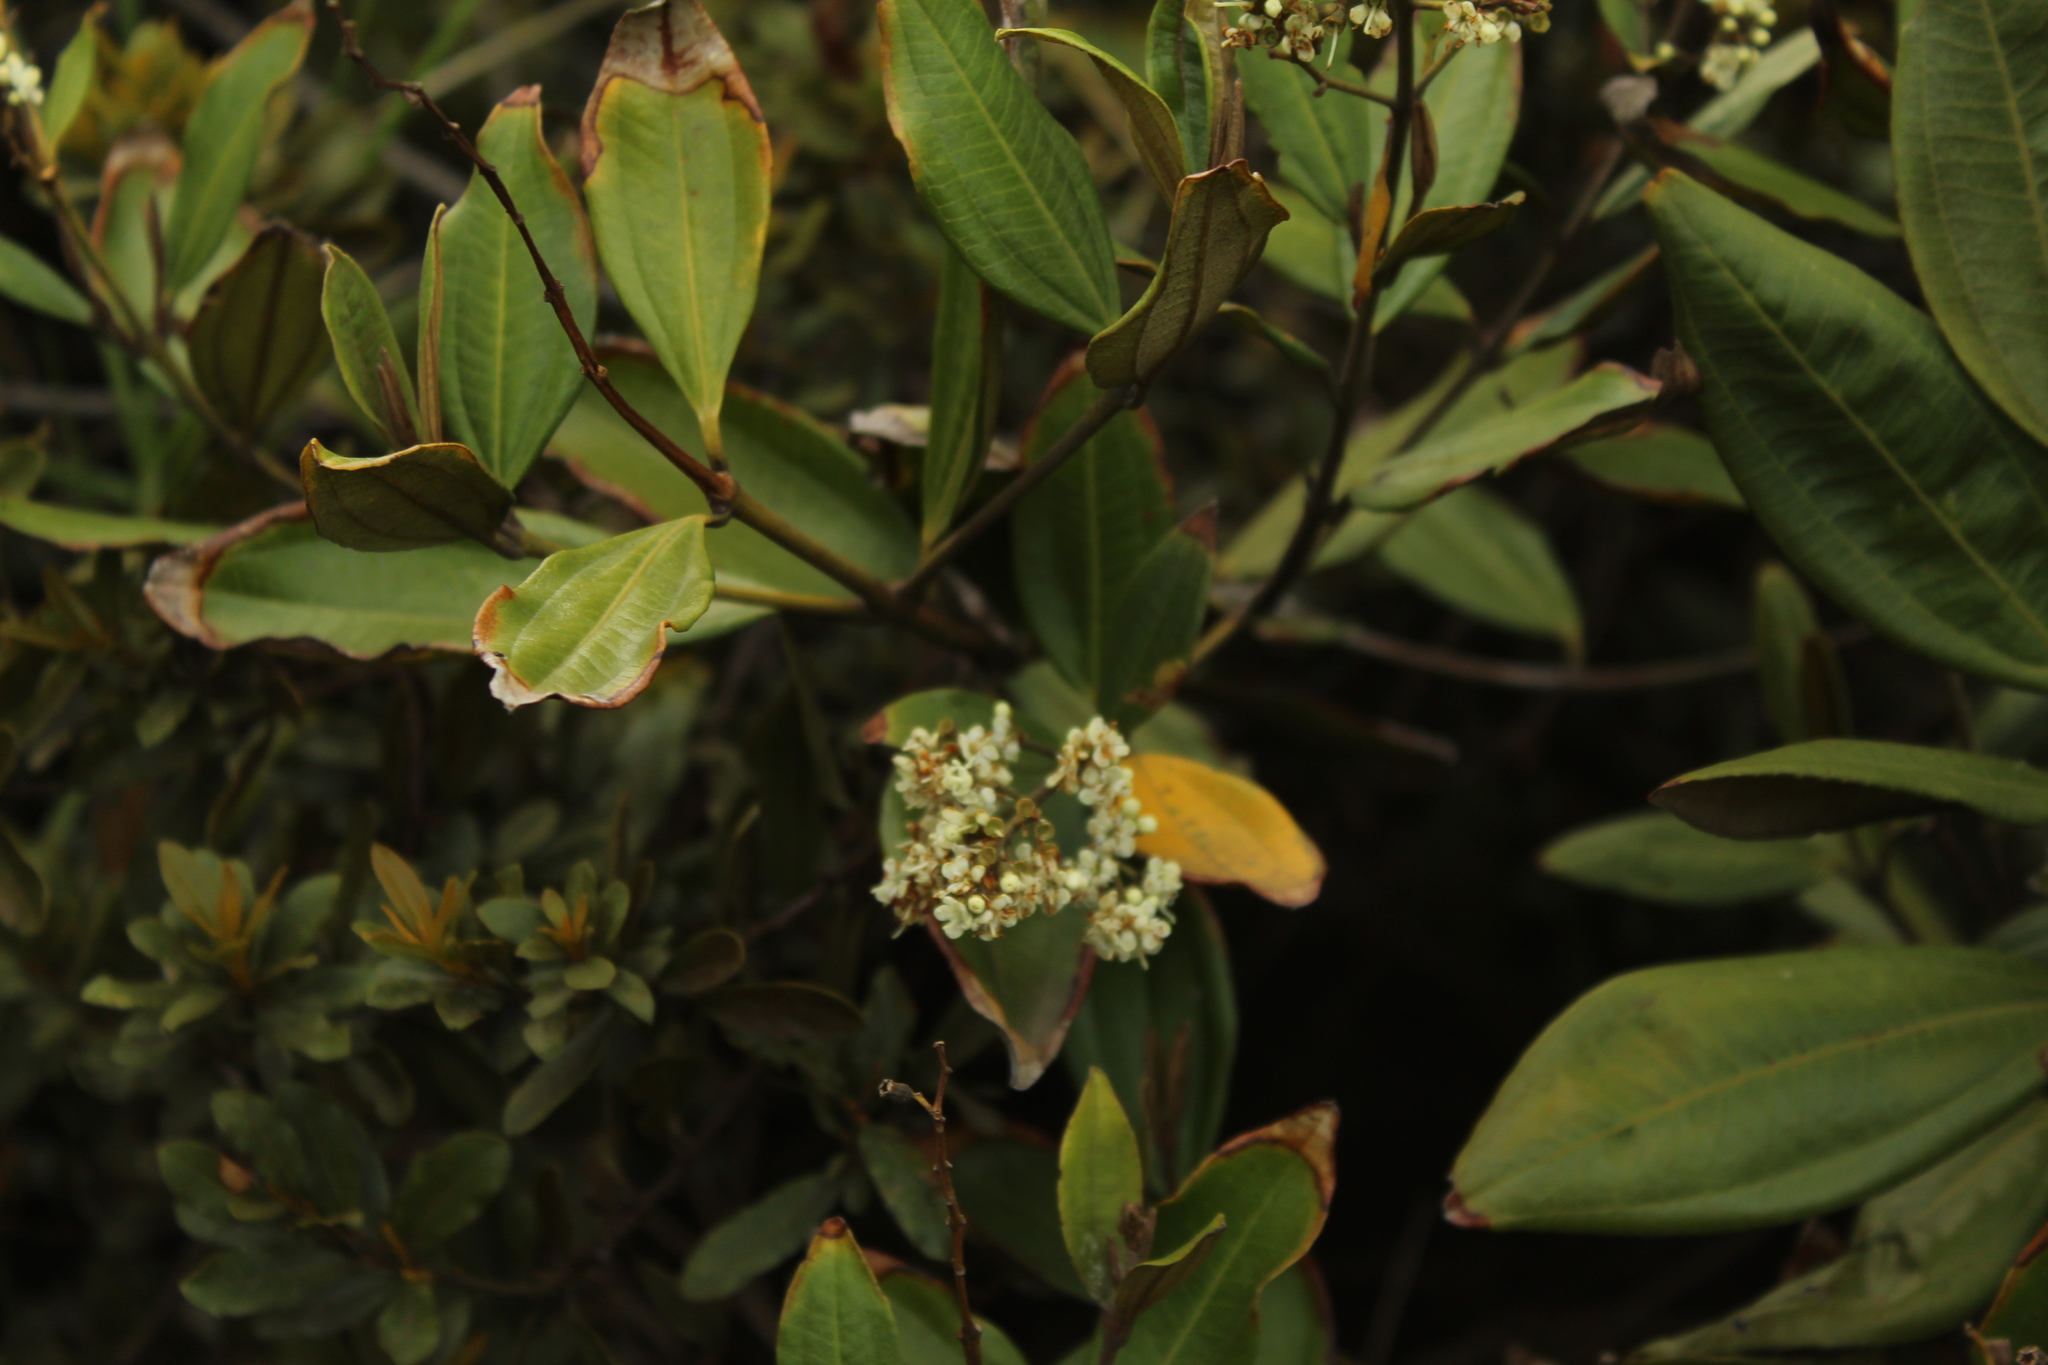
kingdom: Plantae
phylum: Tracheophyta
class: Magnoliopsida
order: Myrtales
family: Melastomataceae
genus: Miconia
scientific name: Miconia squamulosa
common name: Squamulose maya
